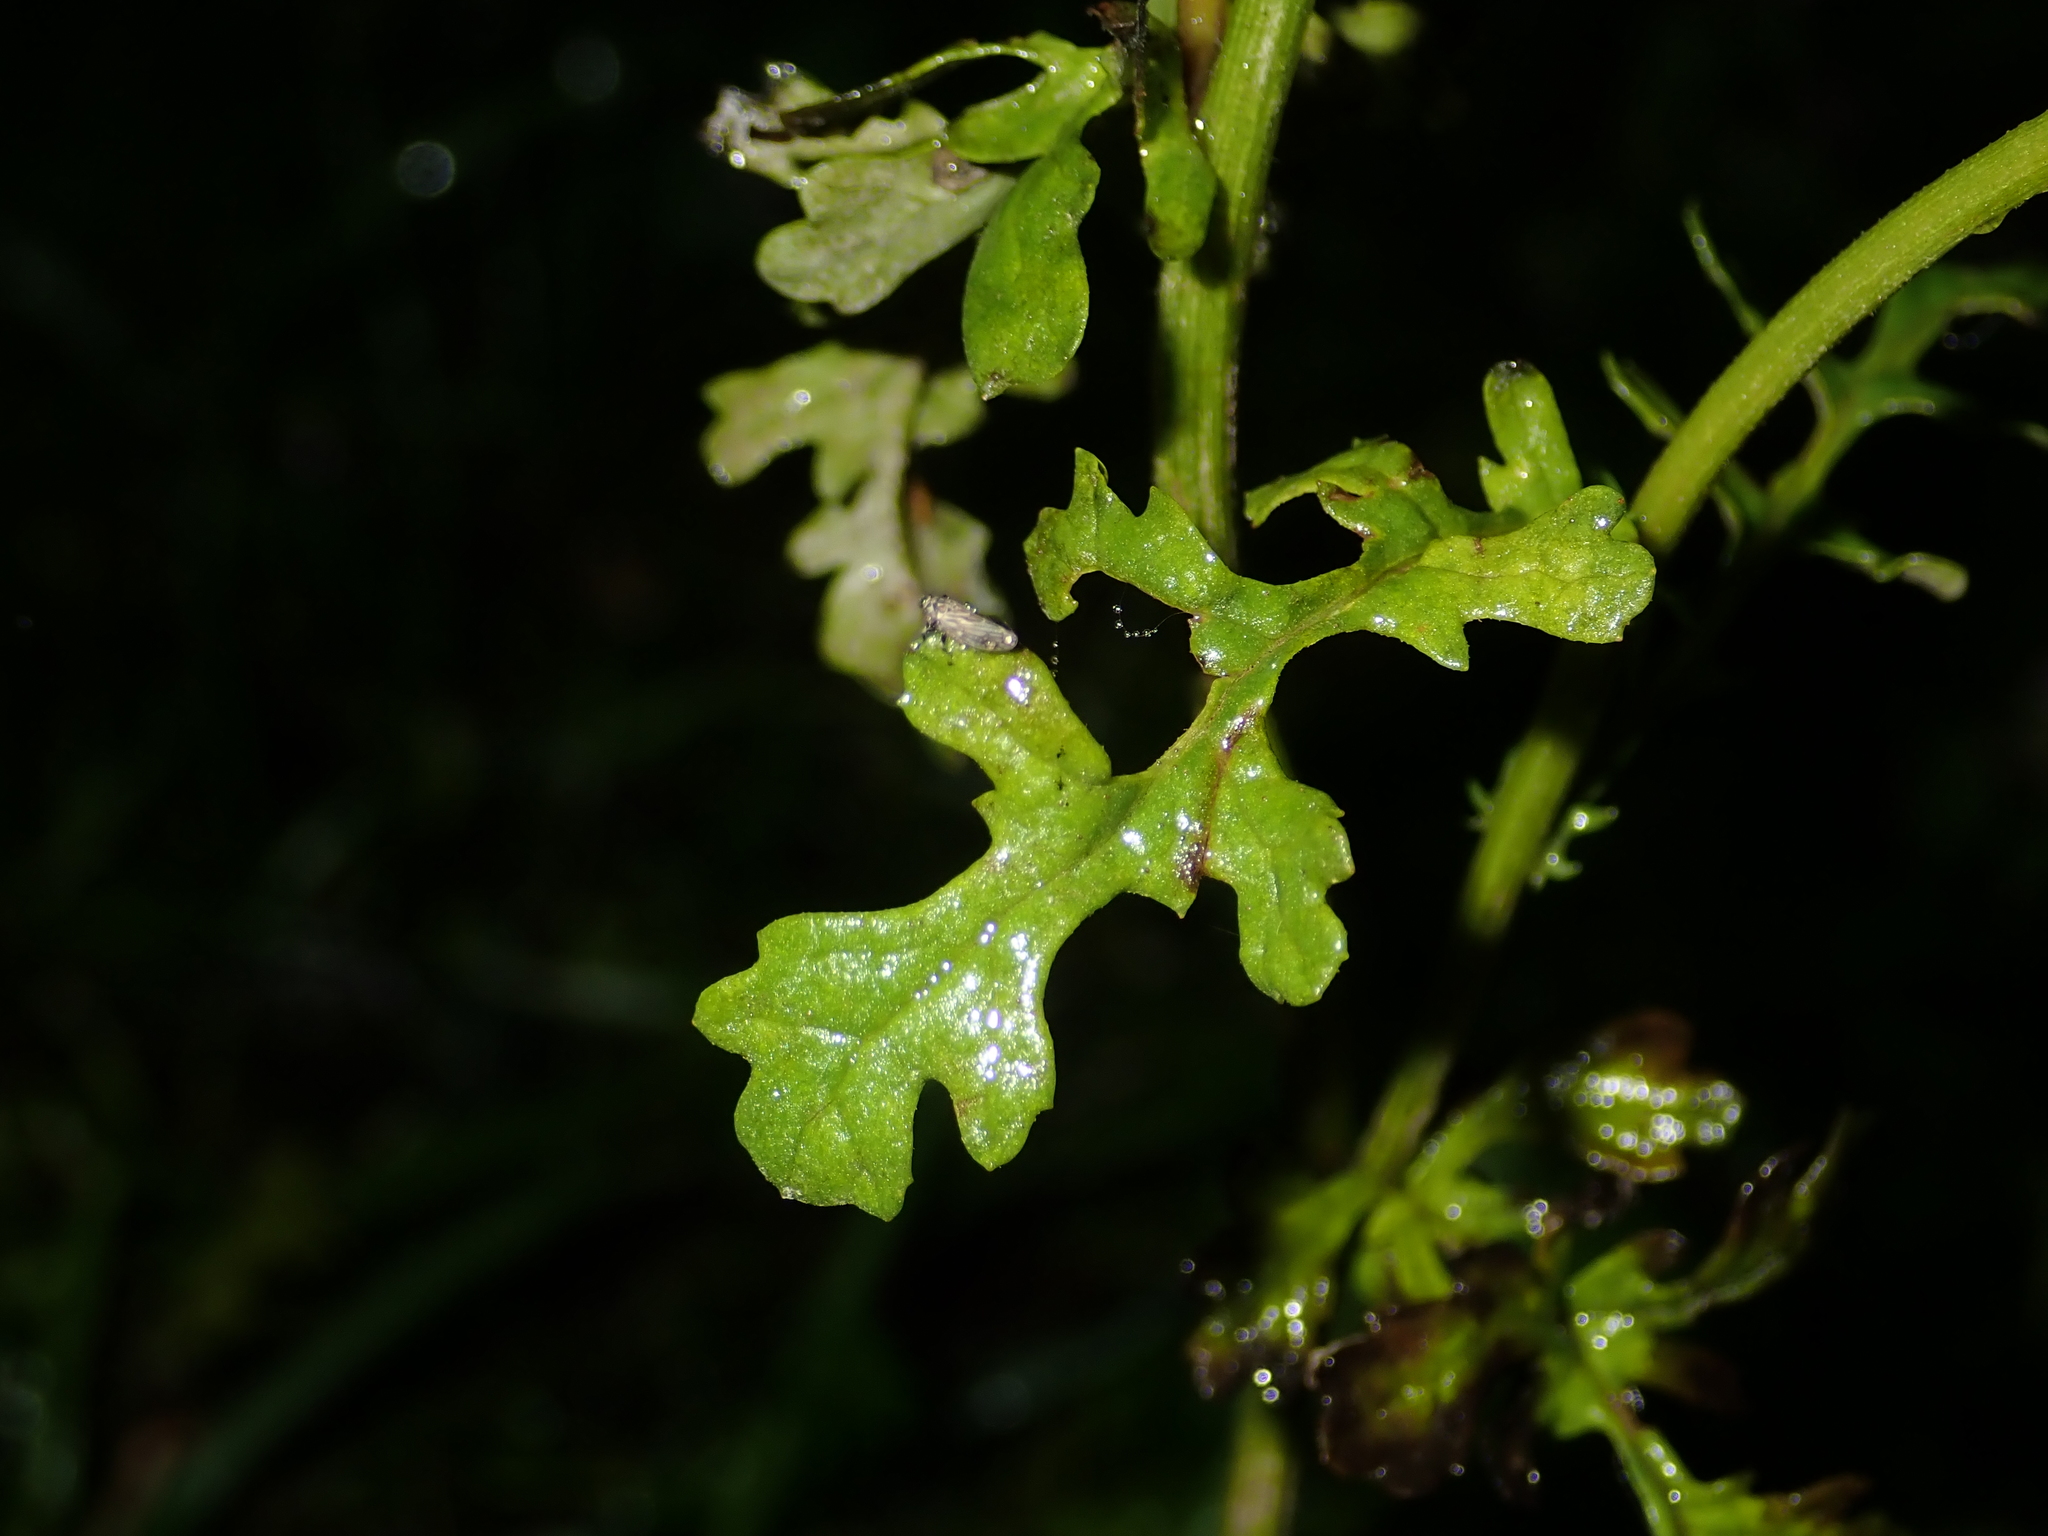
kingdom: Plantae
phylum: Tracheophyta
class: Magnoliopsida
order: Asterales
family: Asteraceae
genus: Jacobaea
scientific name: Jacobaea vulgaris
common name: Stinking willie
